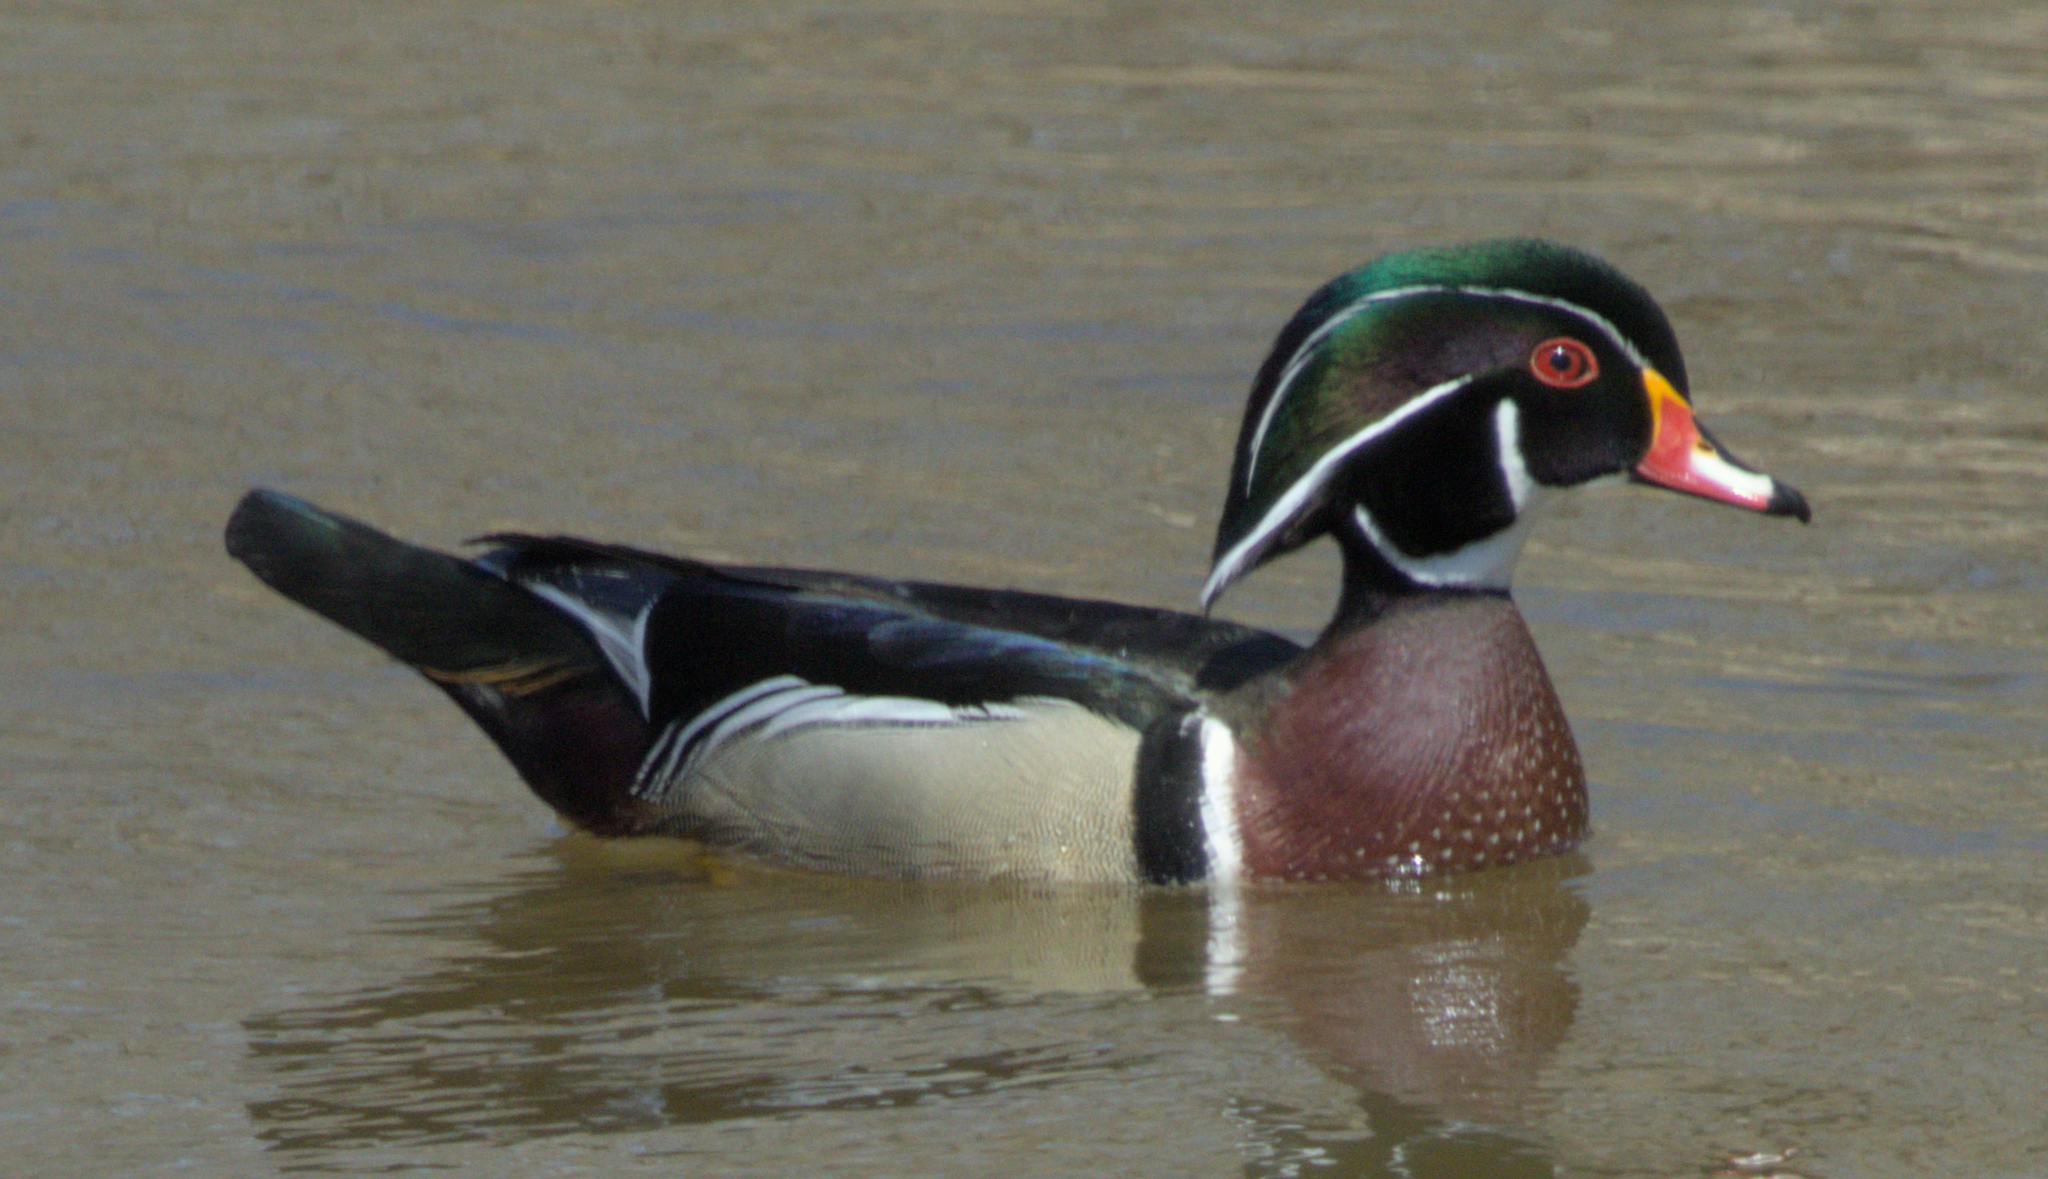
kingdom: Animalia
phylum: Chordata
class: Aves
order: Anseriformes
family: Anatidae
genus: Aix
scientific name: Aix sponsa
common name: Wood duck
